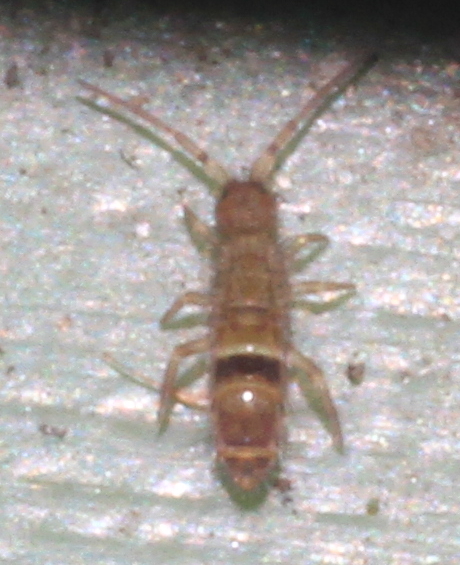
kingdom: Animalia
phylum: Arthropoda
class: Collembola
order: Entomobryomorpha
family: Orchesellidae
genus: Orchesella
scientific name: Orchesella cincta
